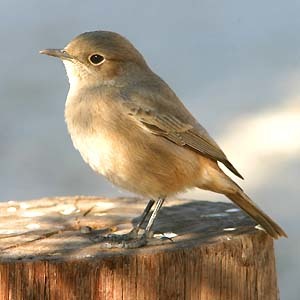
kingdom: Animalia
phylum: Chordata
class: Aves
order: Passeriformes
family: Muscicapidae
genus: Oenanthe
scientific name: Oenanthe familiaris
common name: Familiar chat
